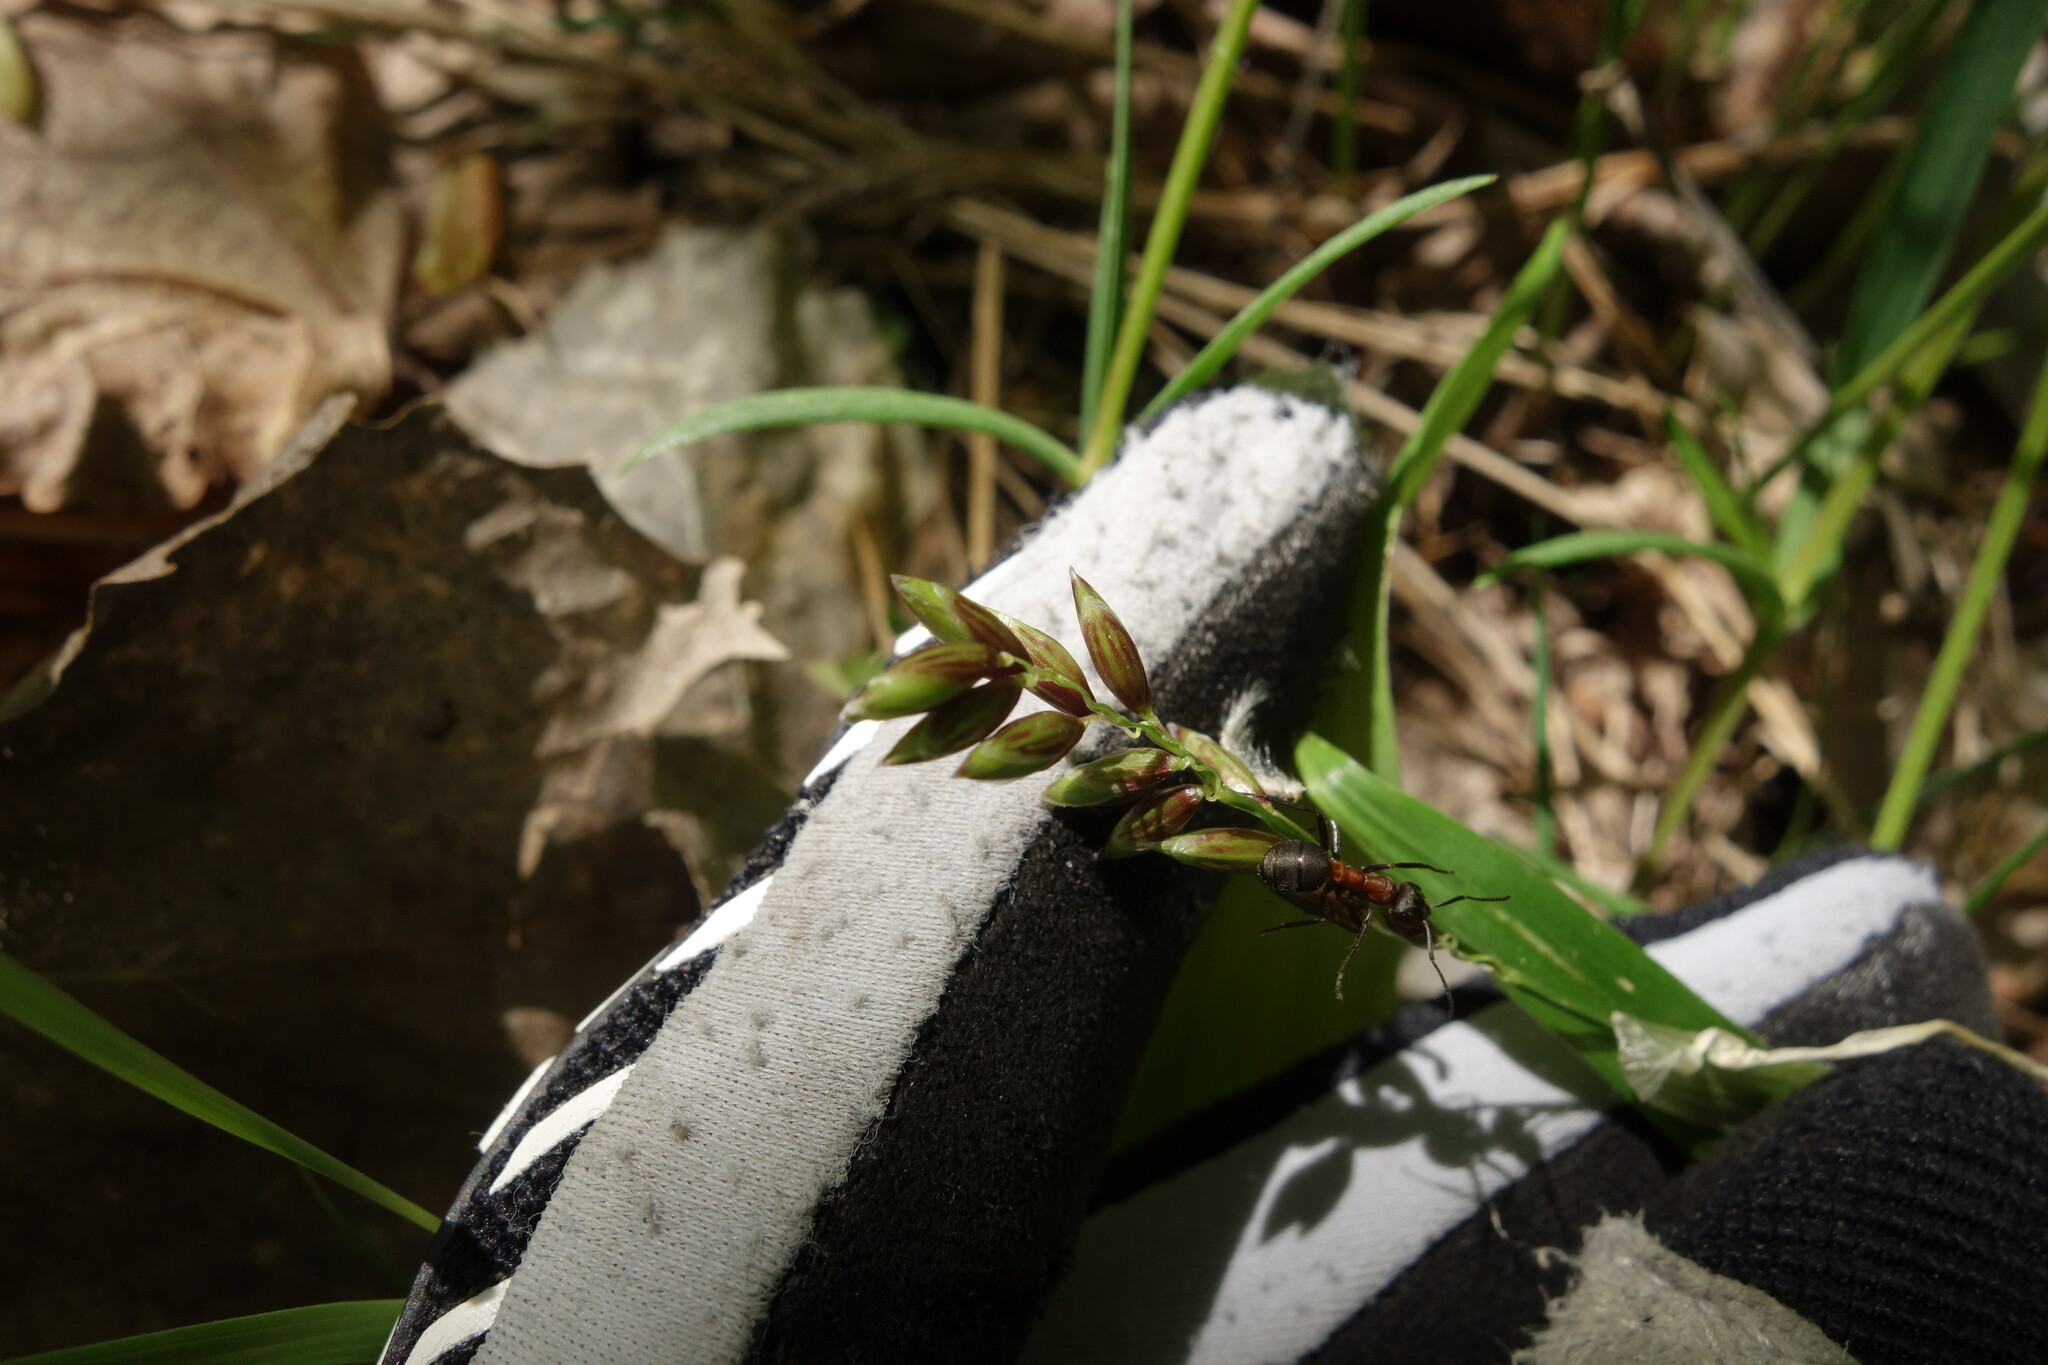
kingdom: Plantae
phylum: Tracheophyta
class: Liliopsida
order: Poales
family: Poaceae
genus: Melica
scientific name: Melica nutans
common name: Mountain melick
